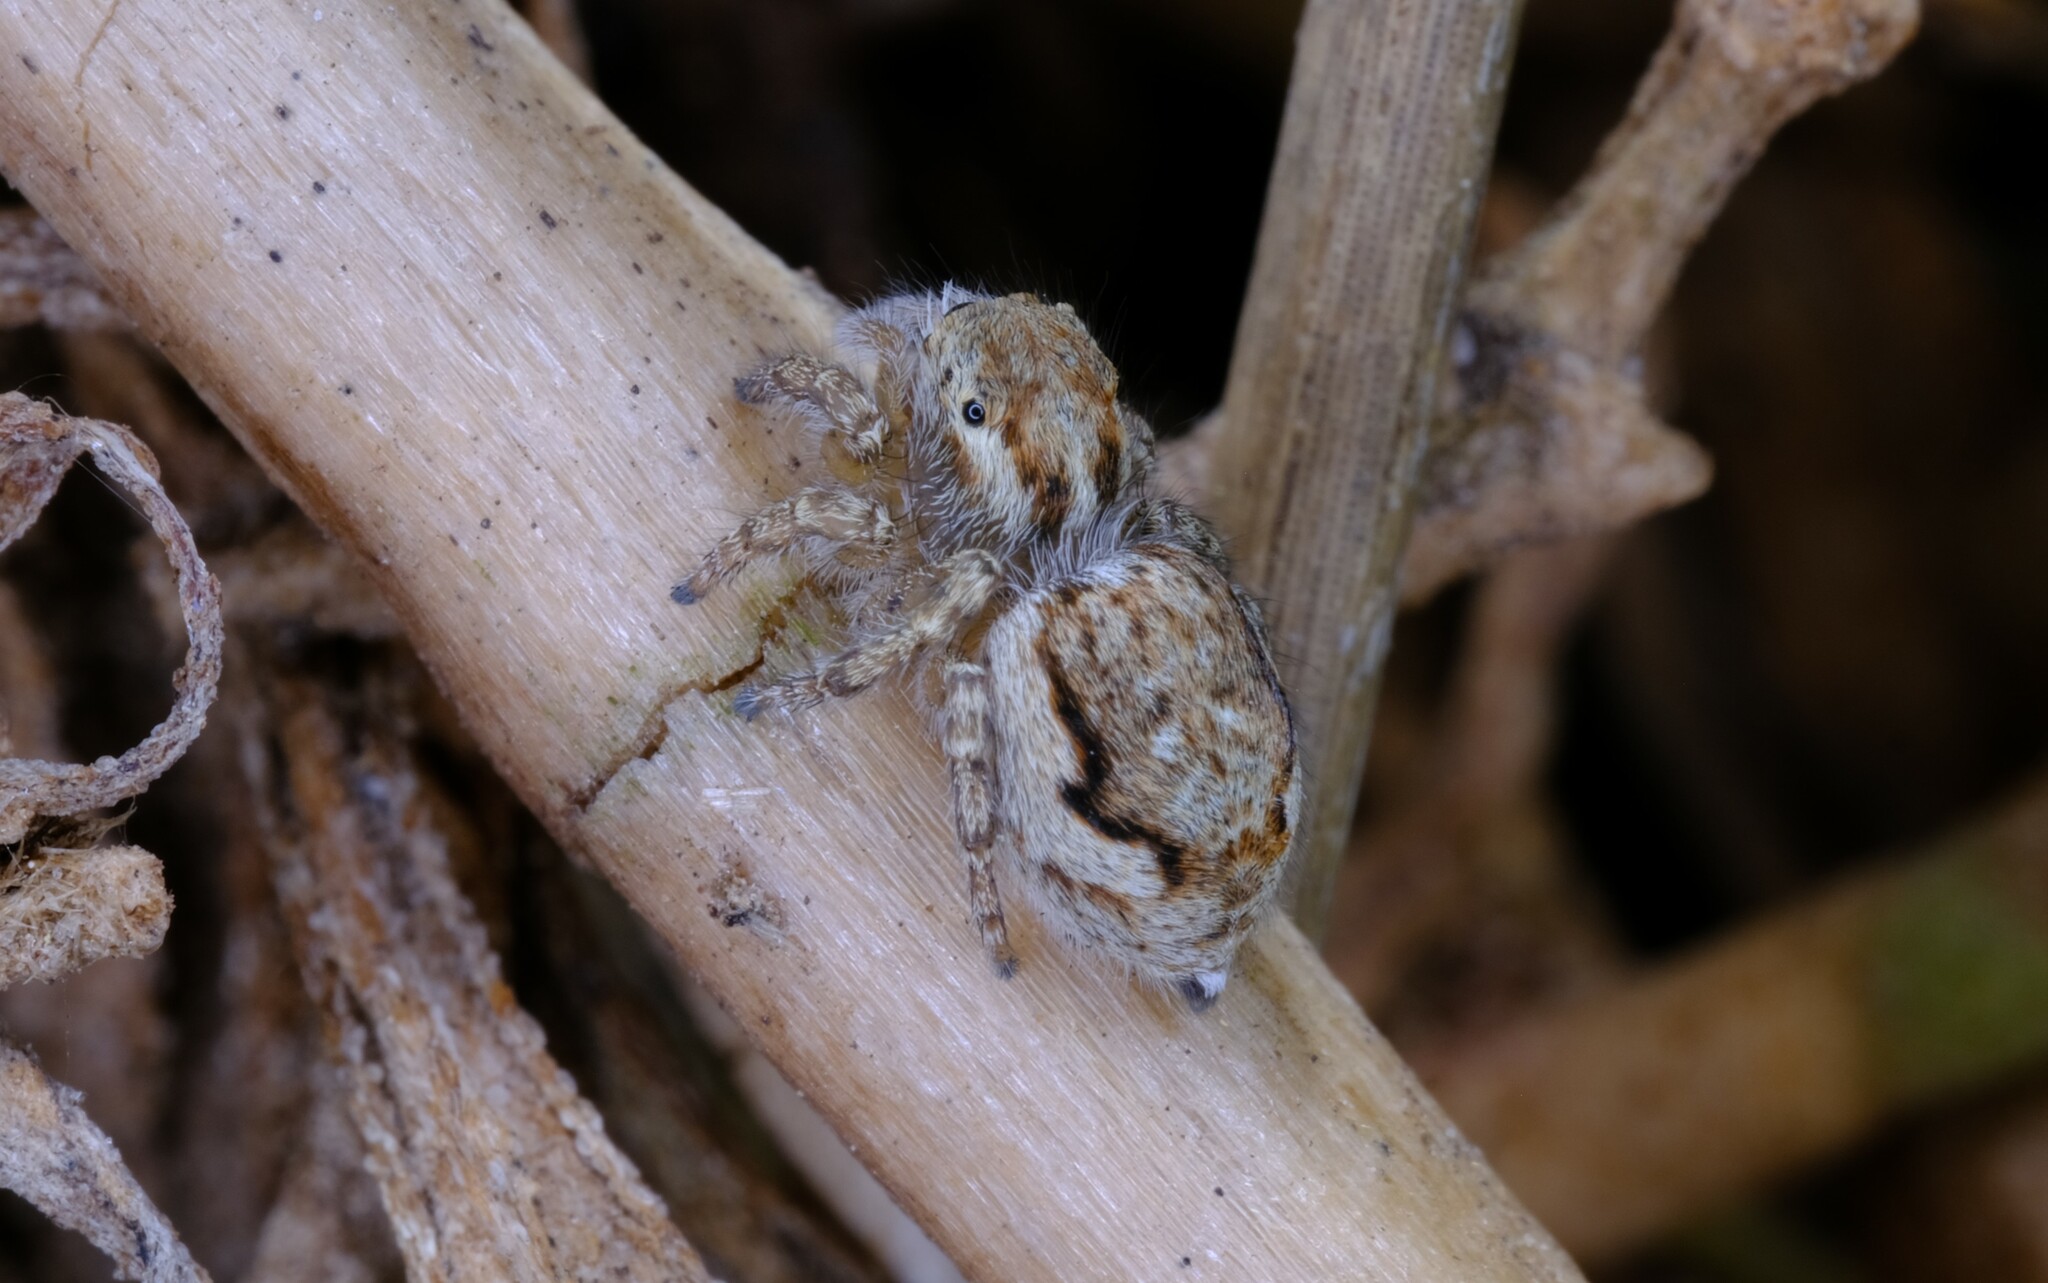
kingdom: Animalia
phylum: Arthropoda
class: Arachnida
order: Araneae
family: Salticidae
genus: Maratus
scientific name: Maratus tasmanicus
